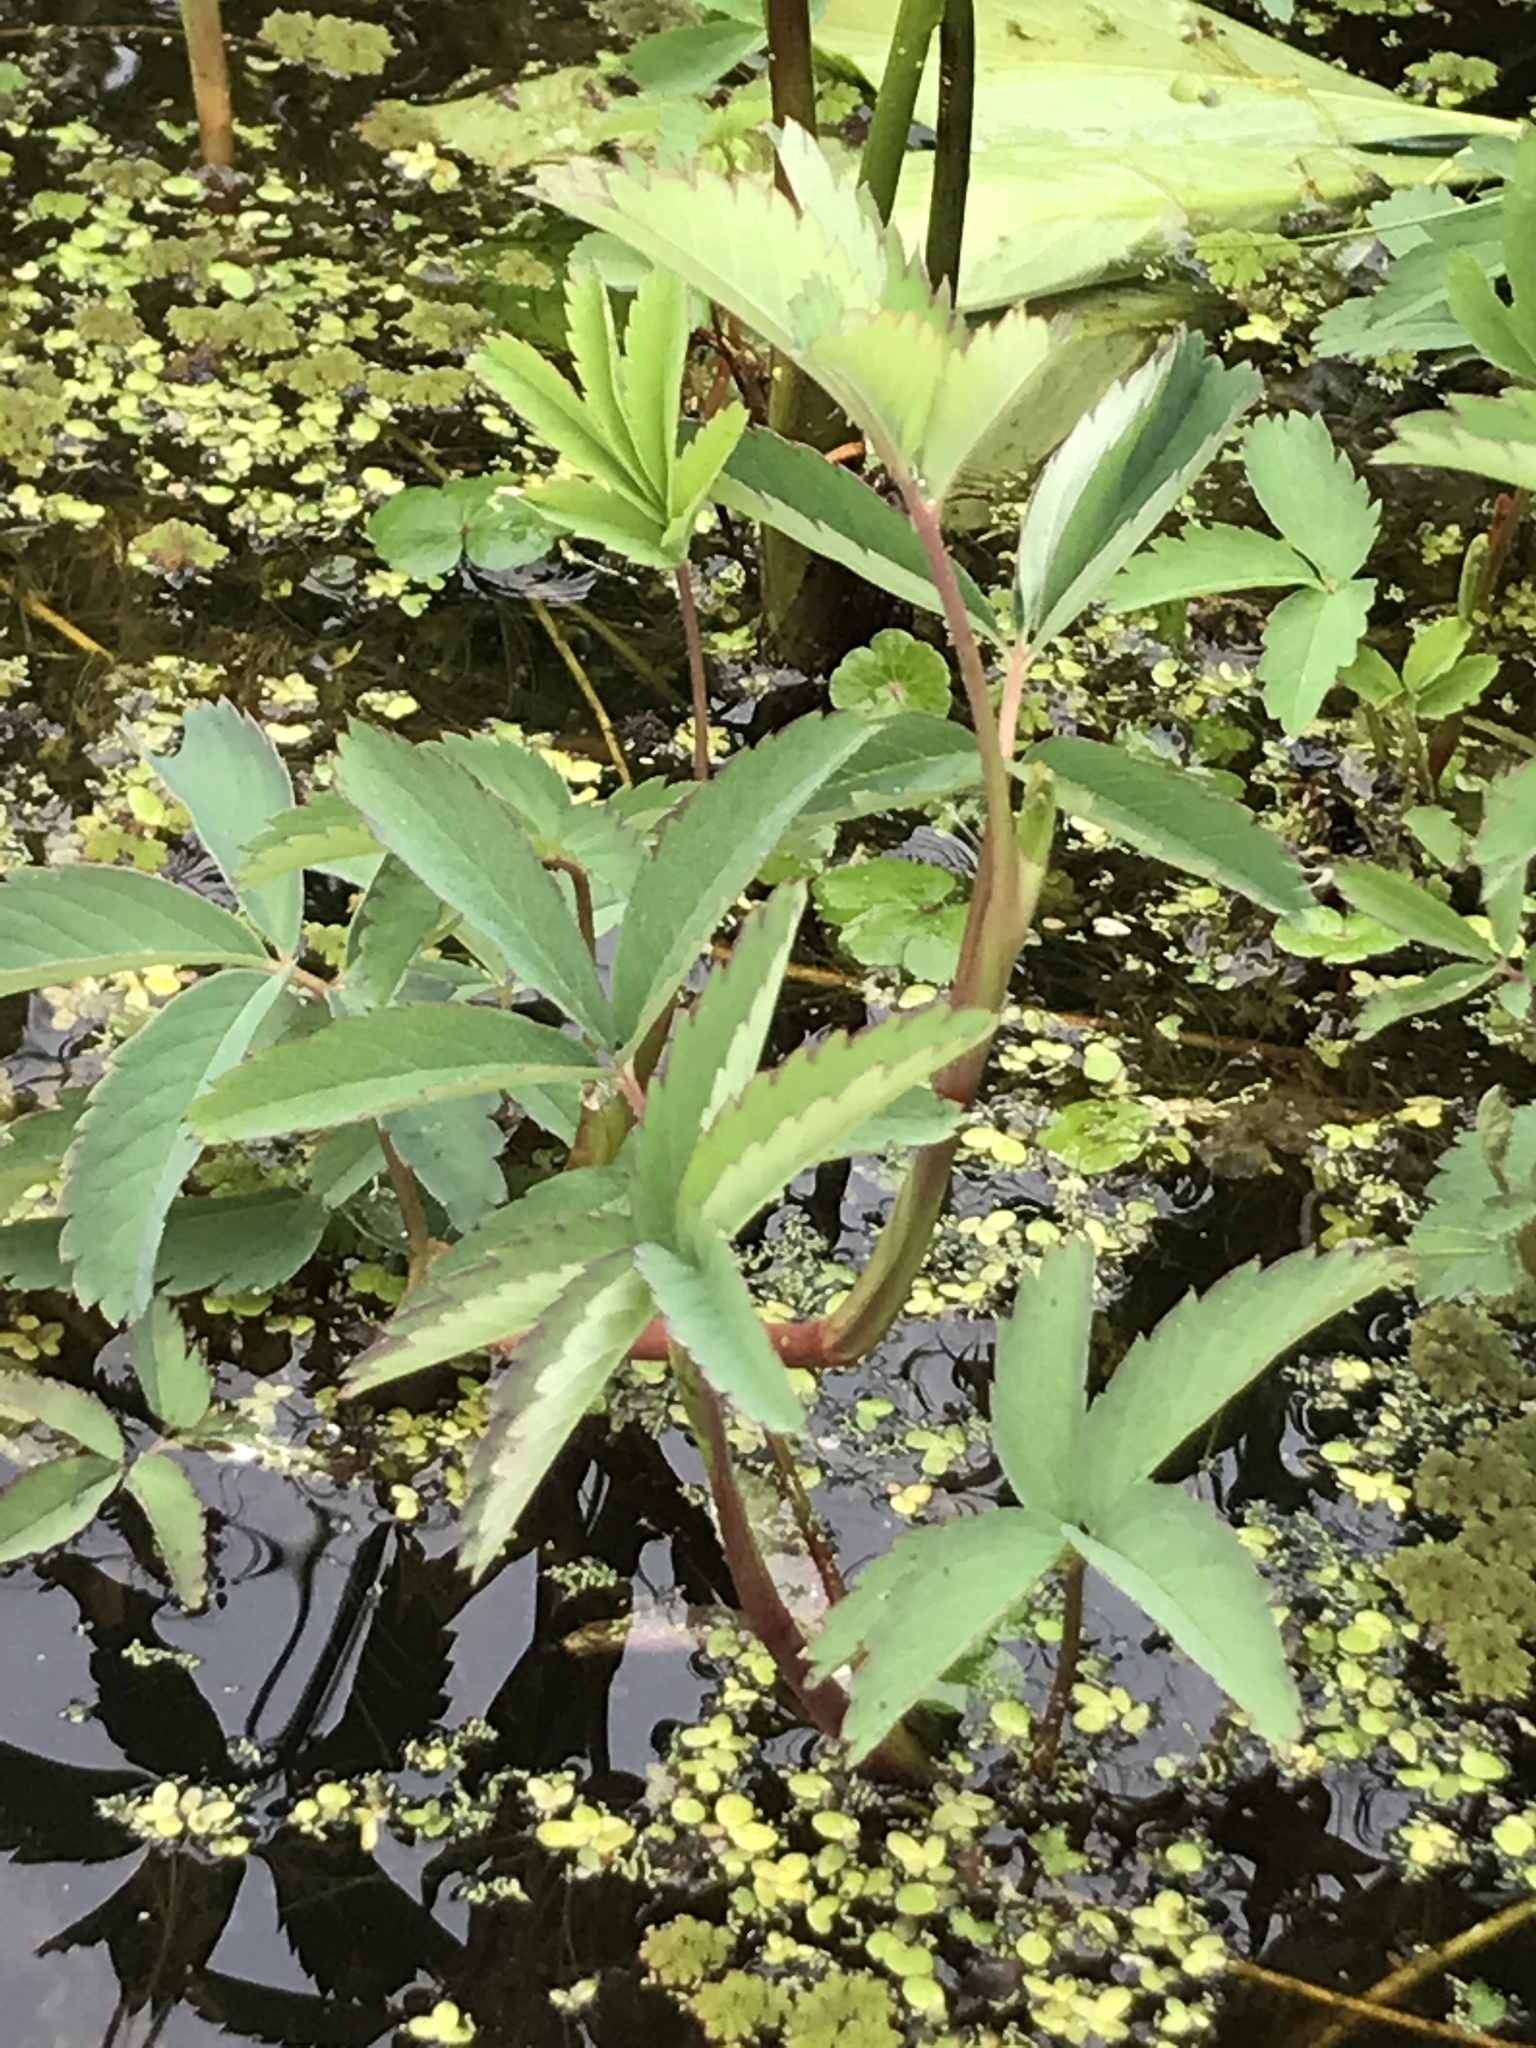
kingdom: Plantae
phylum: Tracheophyta
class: Magnoliopsida
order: Rosales
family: Rosaceae
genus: Comarum
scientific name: Comarum palustre
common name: Marsh cinquefoil
